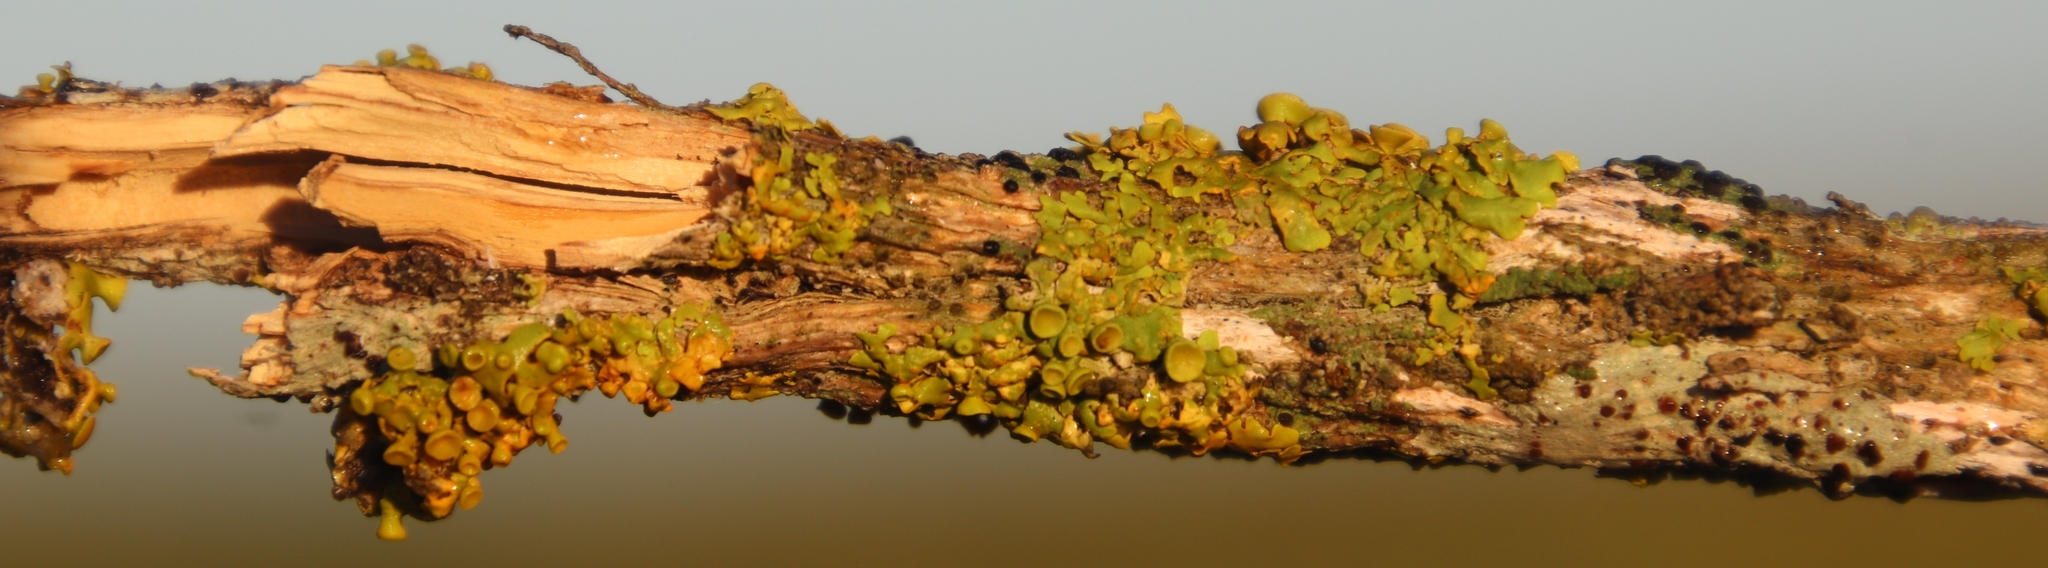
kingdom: Fungi
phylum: Ascomycota
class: Lecanoromycetes
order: Teloschistales
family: Teloschistaceae
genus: Dufourea
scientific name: Dufourea turbinata
